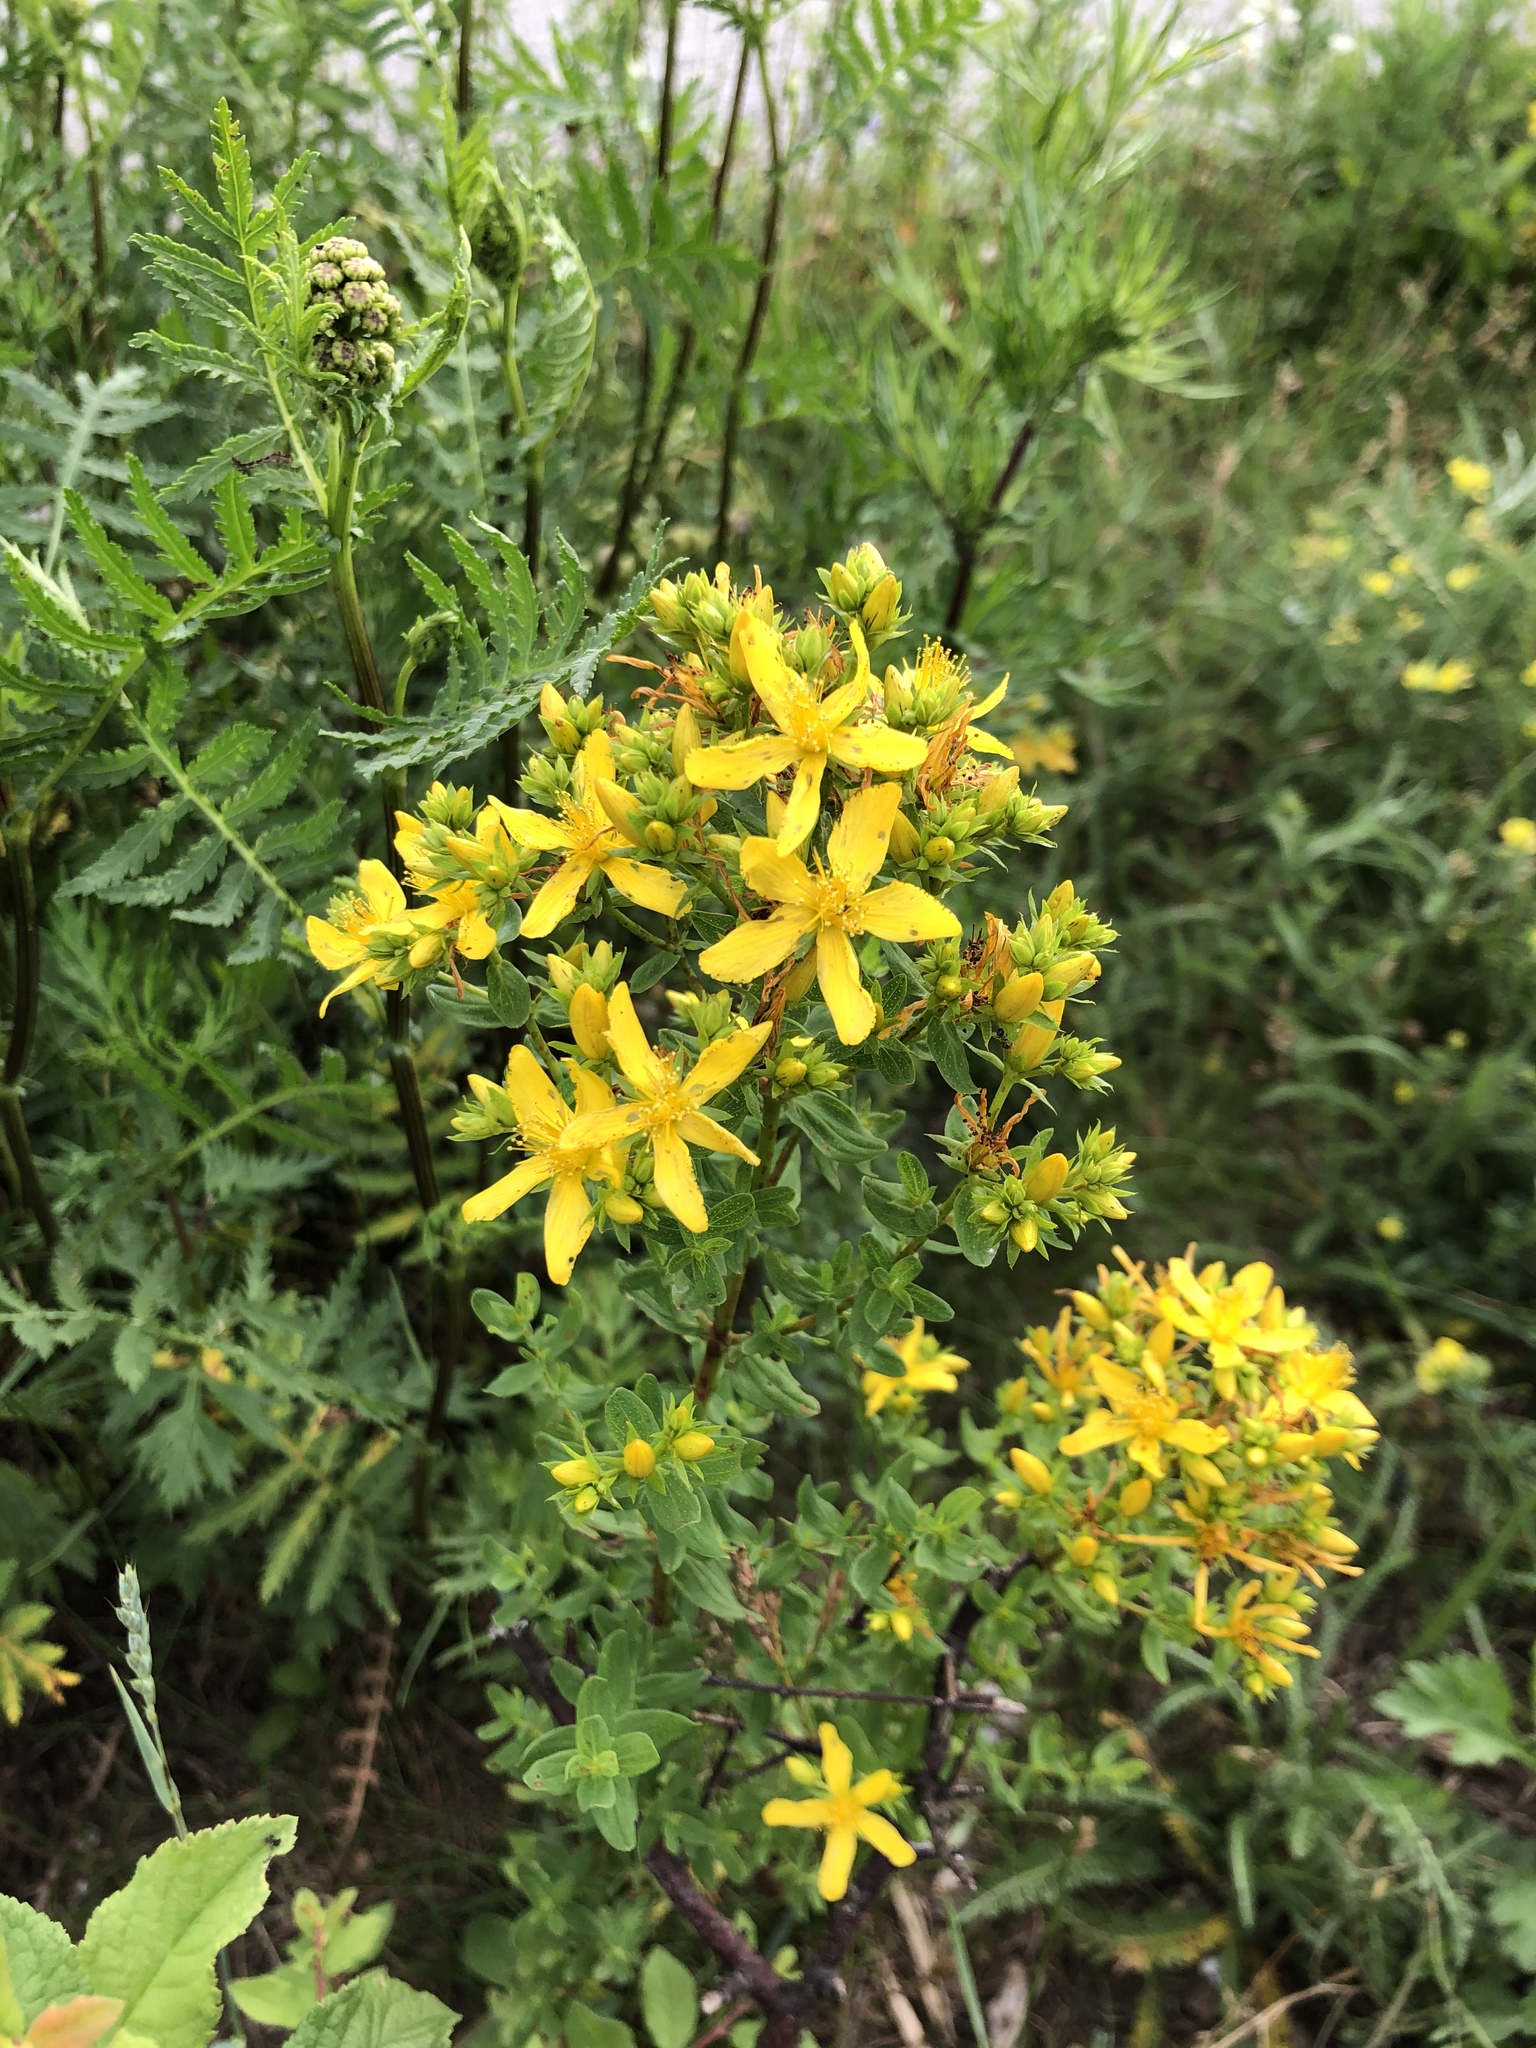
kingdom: Plantae
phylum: Tracheophyta
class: Magnoliopsida
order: Malpighiales
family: Hypericaceae
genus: Hypericum
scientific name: Hypericum perforatum
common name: Common st. johnswort
